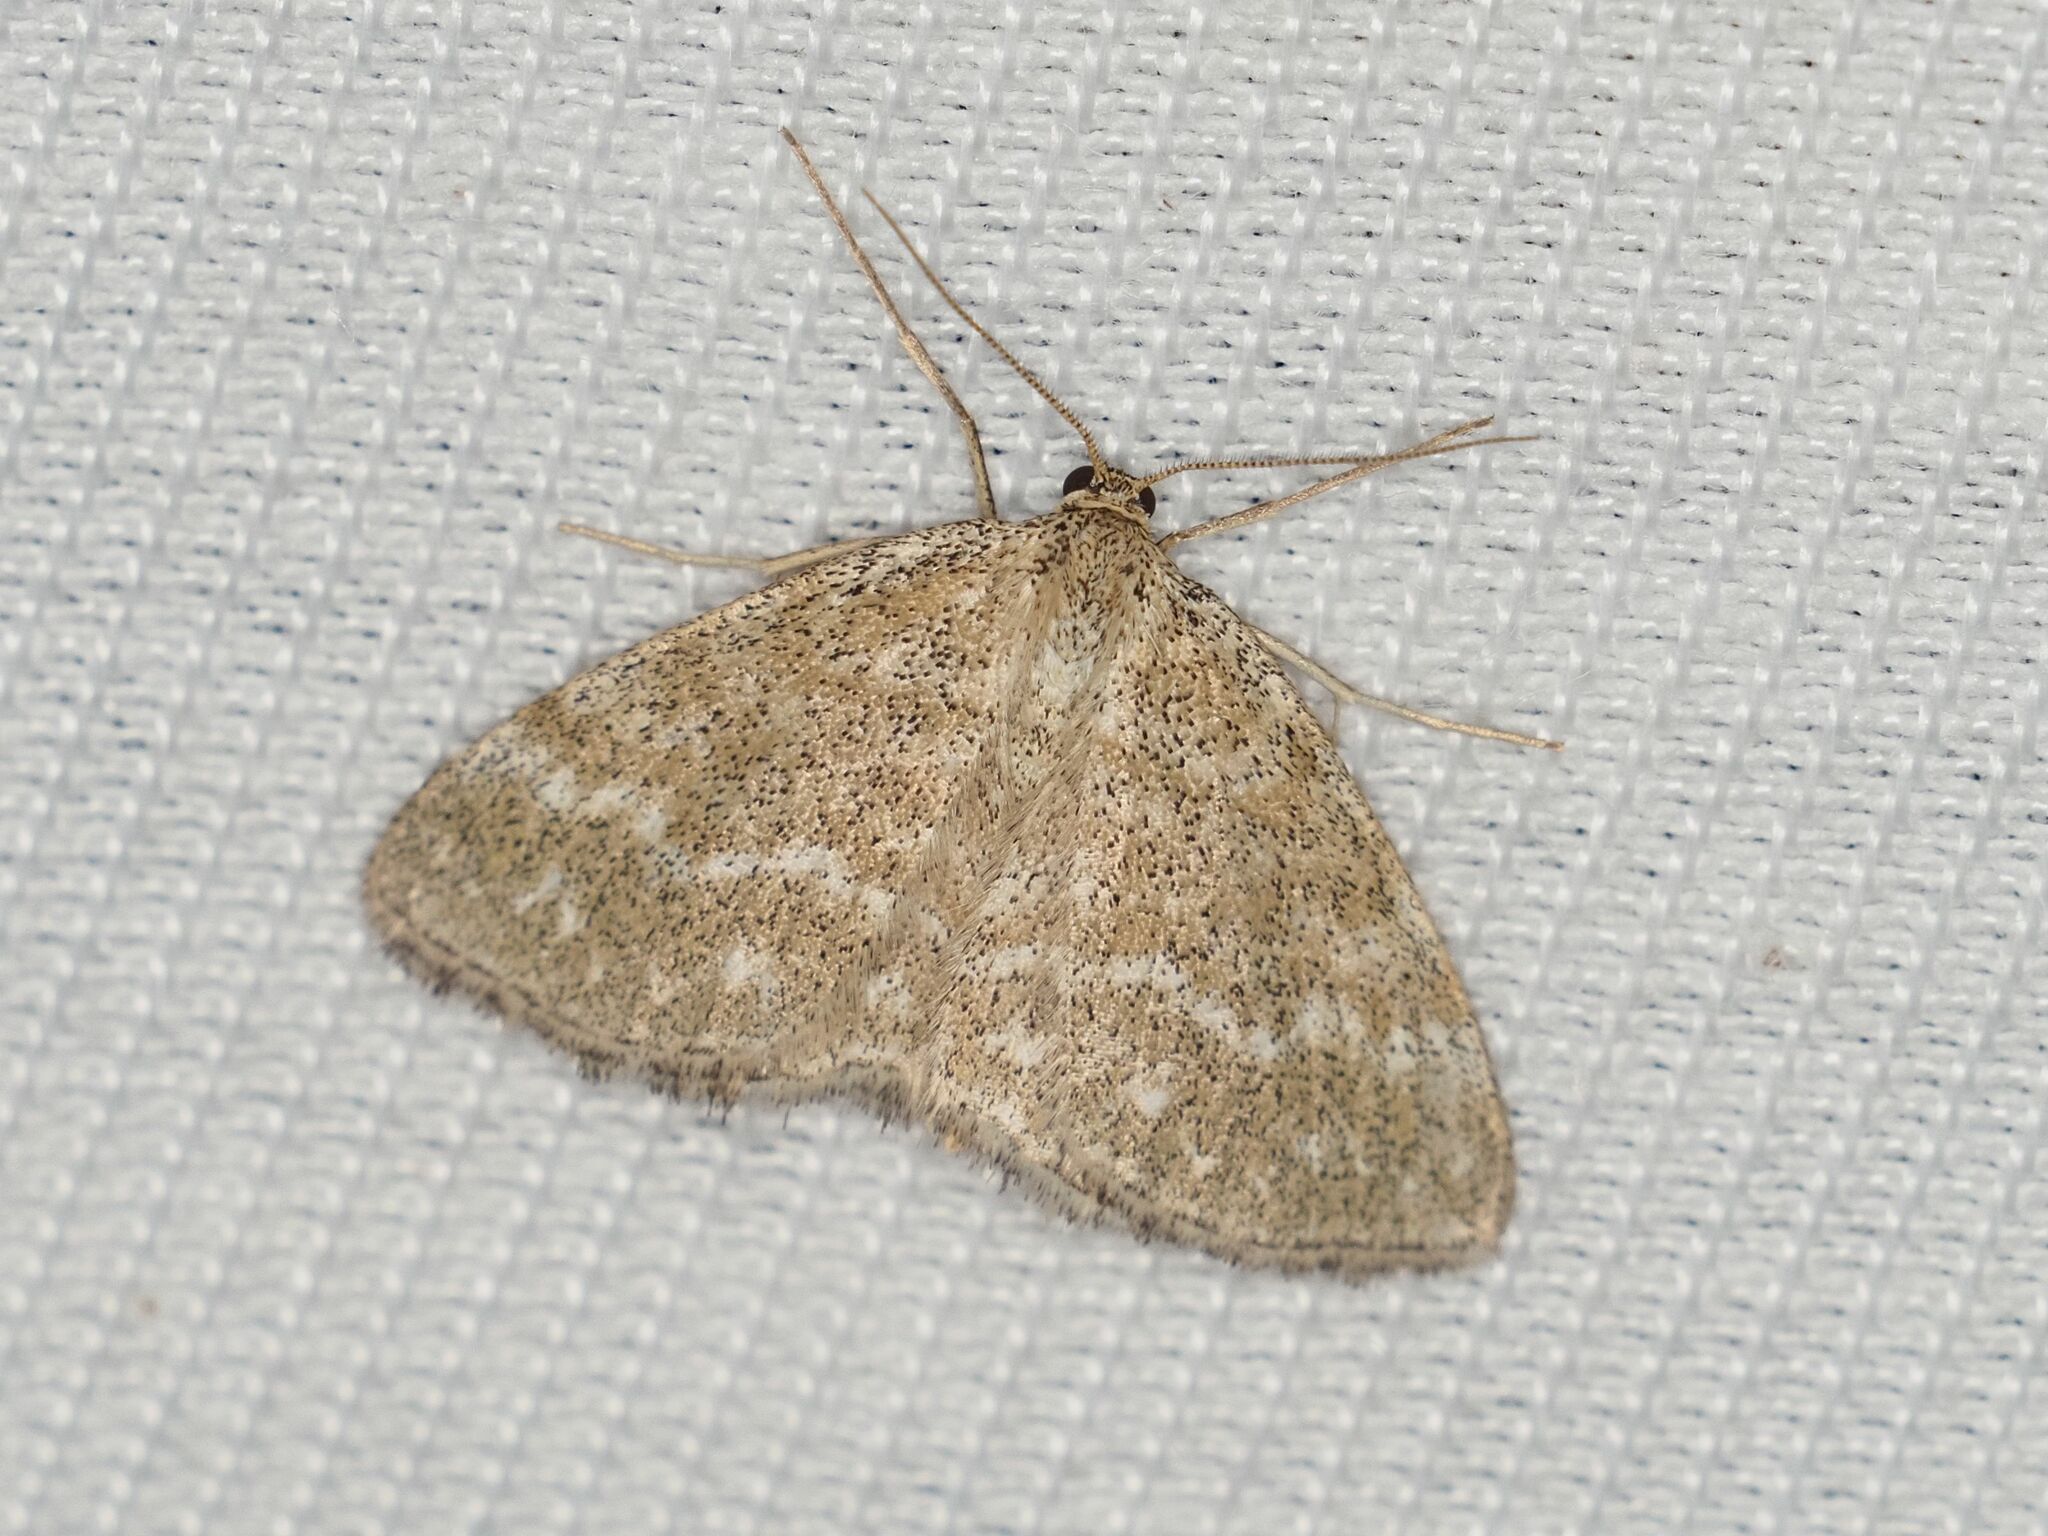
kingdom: Animalia
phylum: Arthropoda
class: Insecta
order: Lepidoptera
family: Geometridae
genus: Scopula
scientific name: Scopula immorata
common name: Lewes wave
